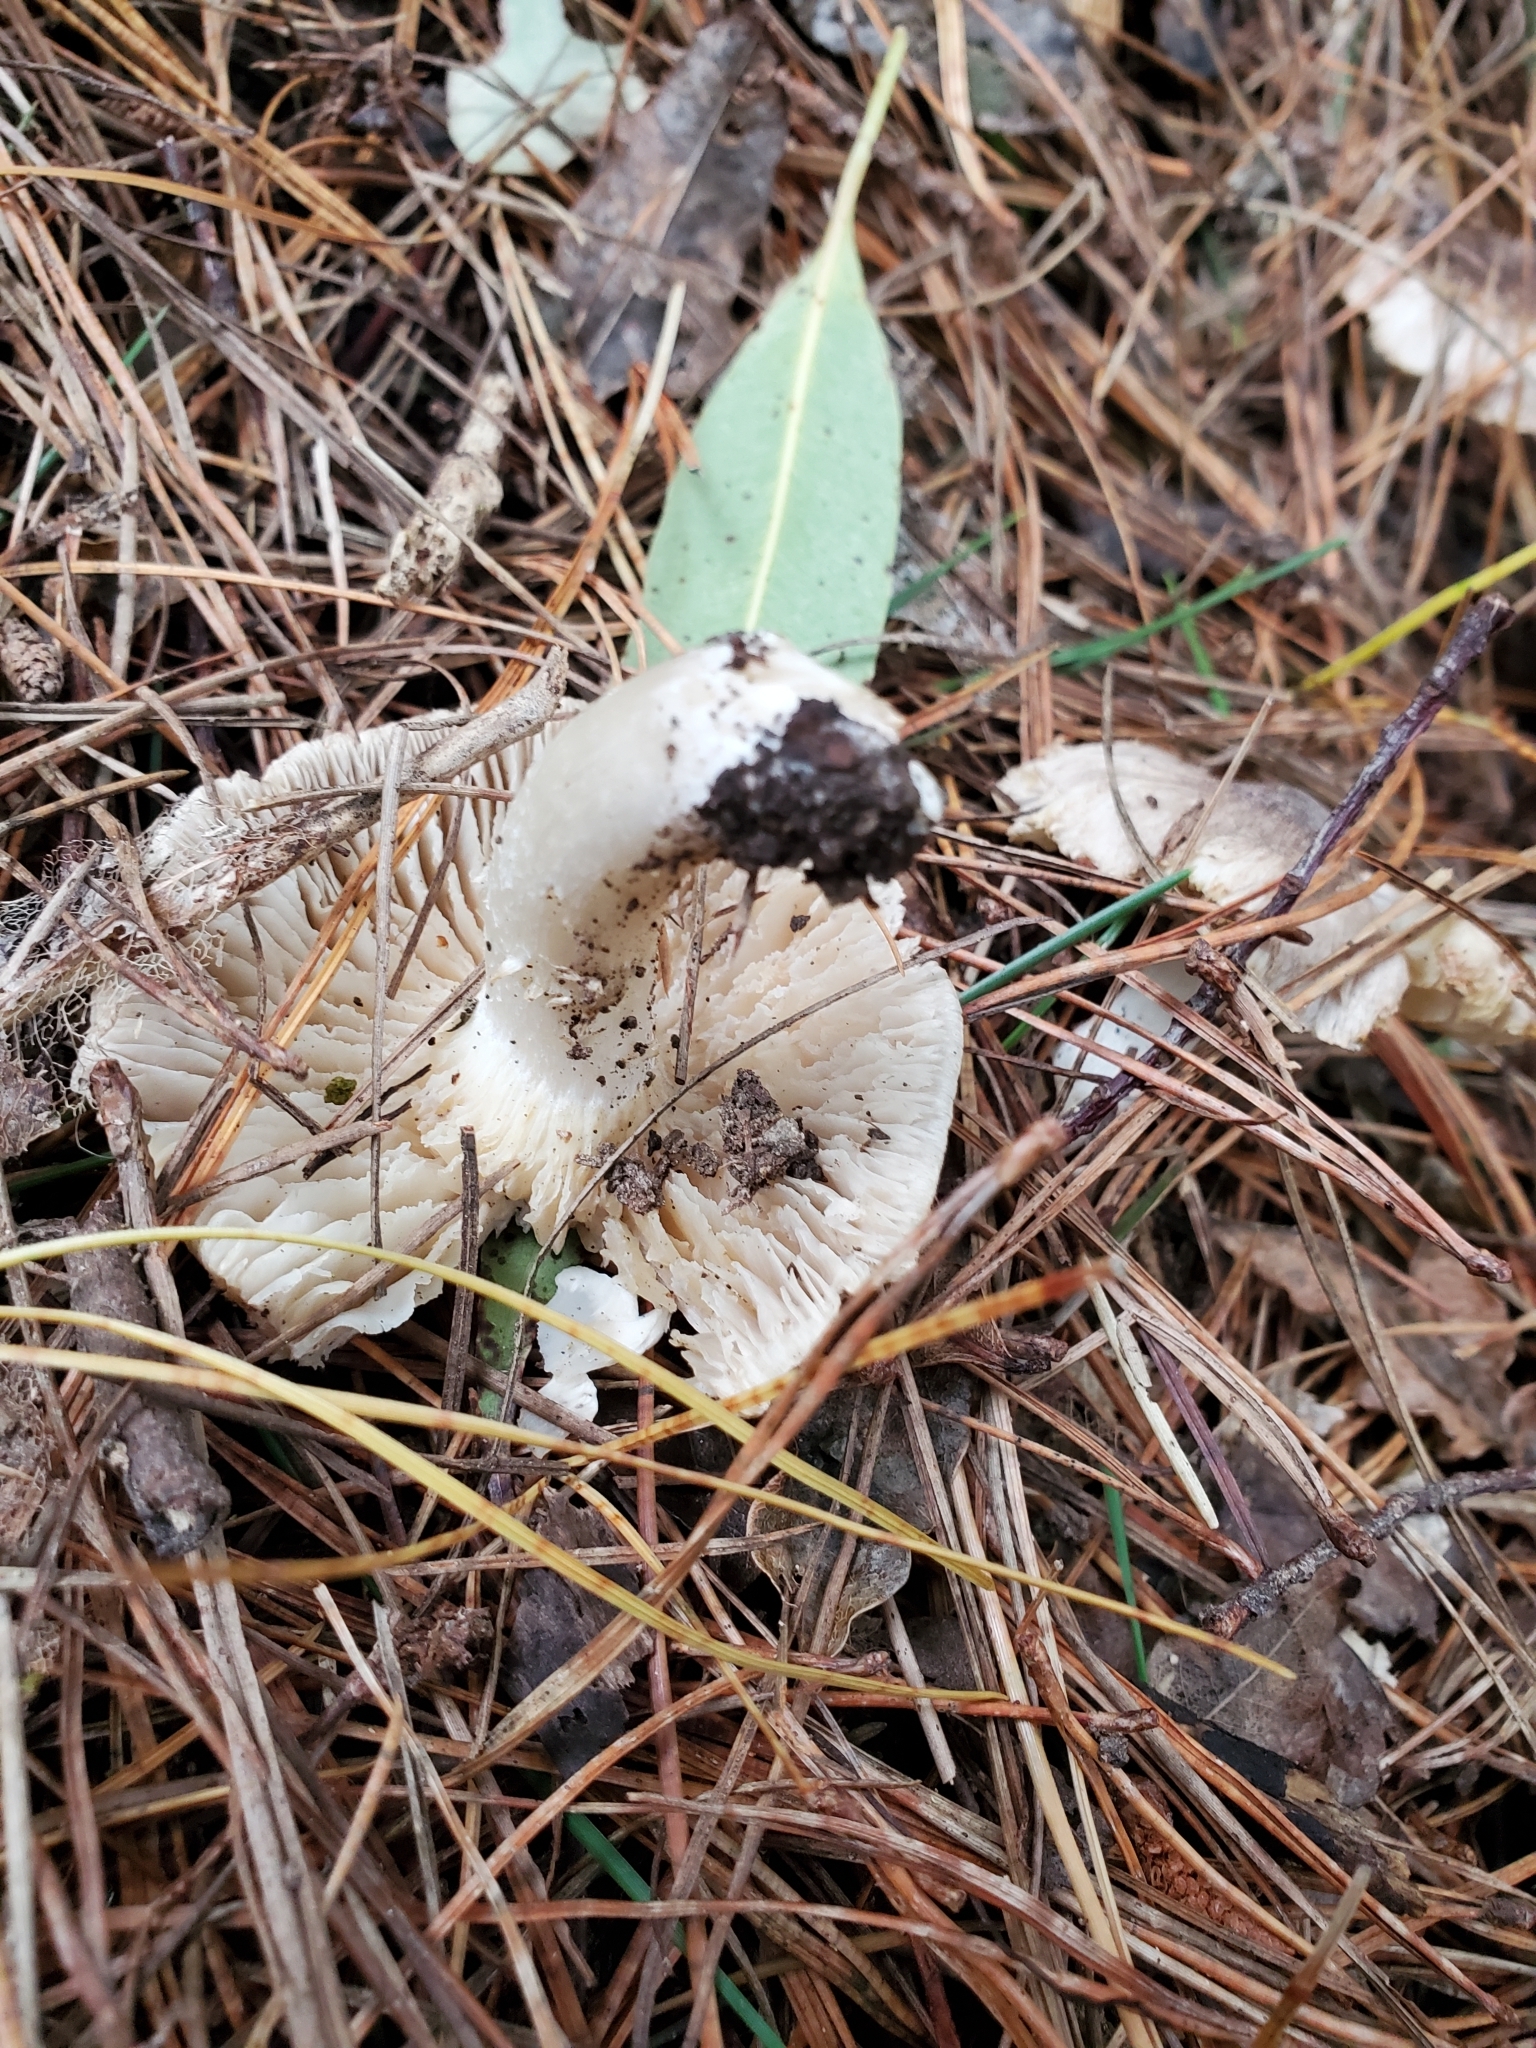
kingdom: Fungi
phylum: Basidiomycota
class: Agaricomycetes
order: Agaricales
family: Tricholomataceae
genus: Tricholoma
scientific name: Tricholoma terreum
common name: Grey knight
